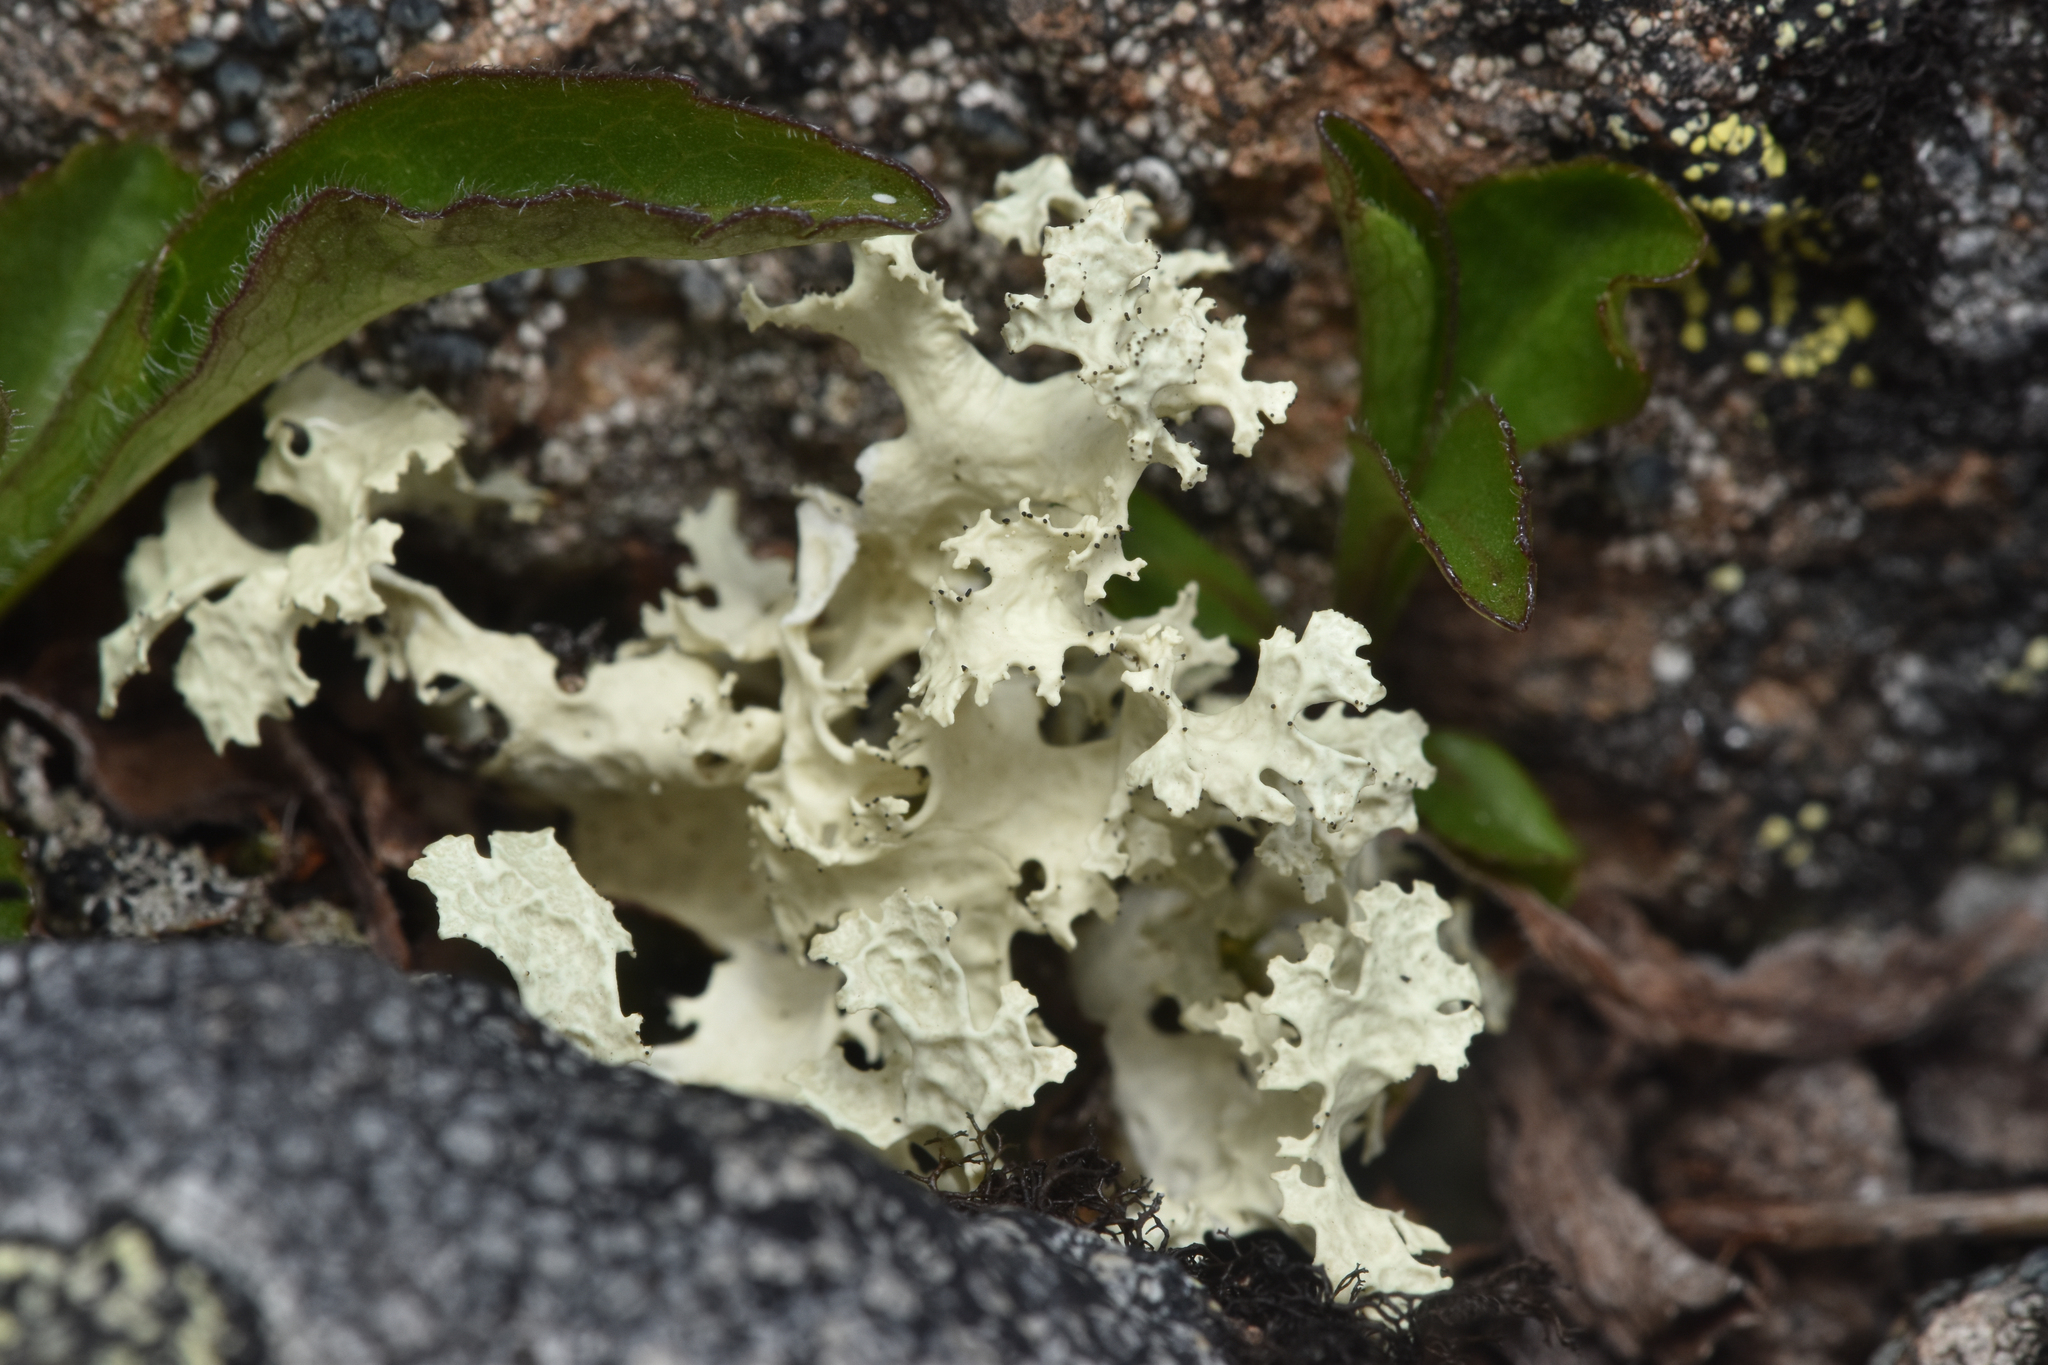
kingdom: Fungi
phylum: Ascomycota
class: Lecanoromycetes
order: Lecanorales
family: Parmeliaceae
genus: Nephromopsis
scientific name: Nephromopsis nivalis
